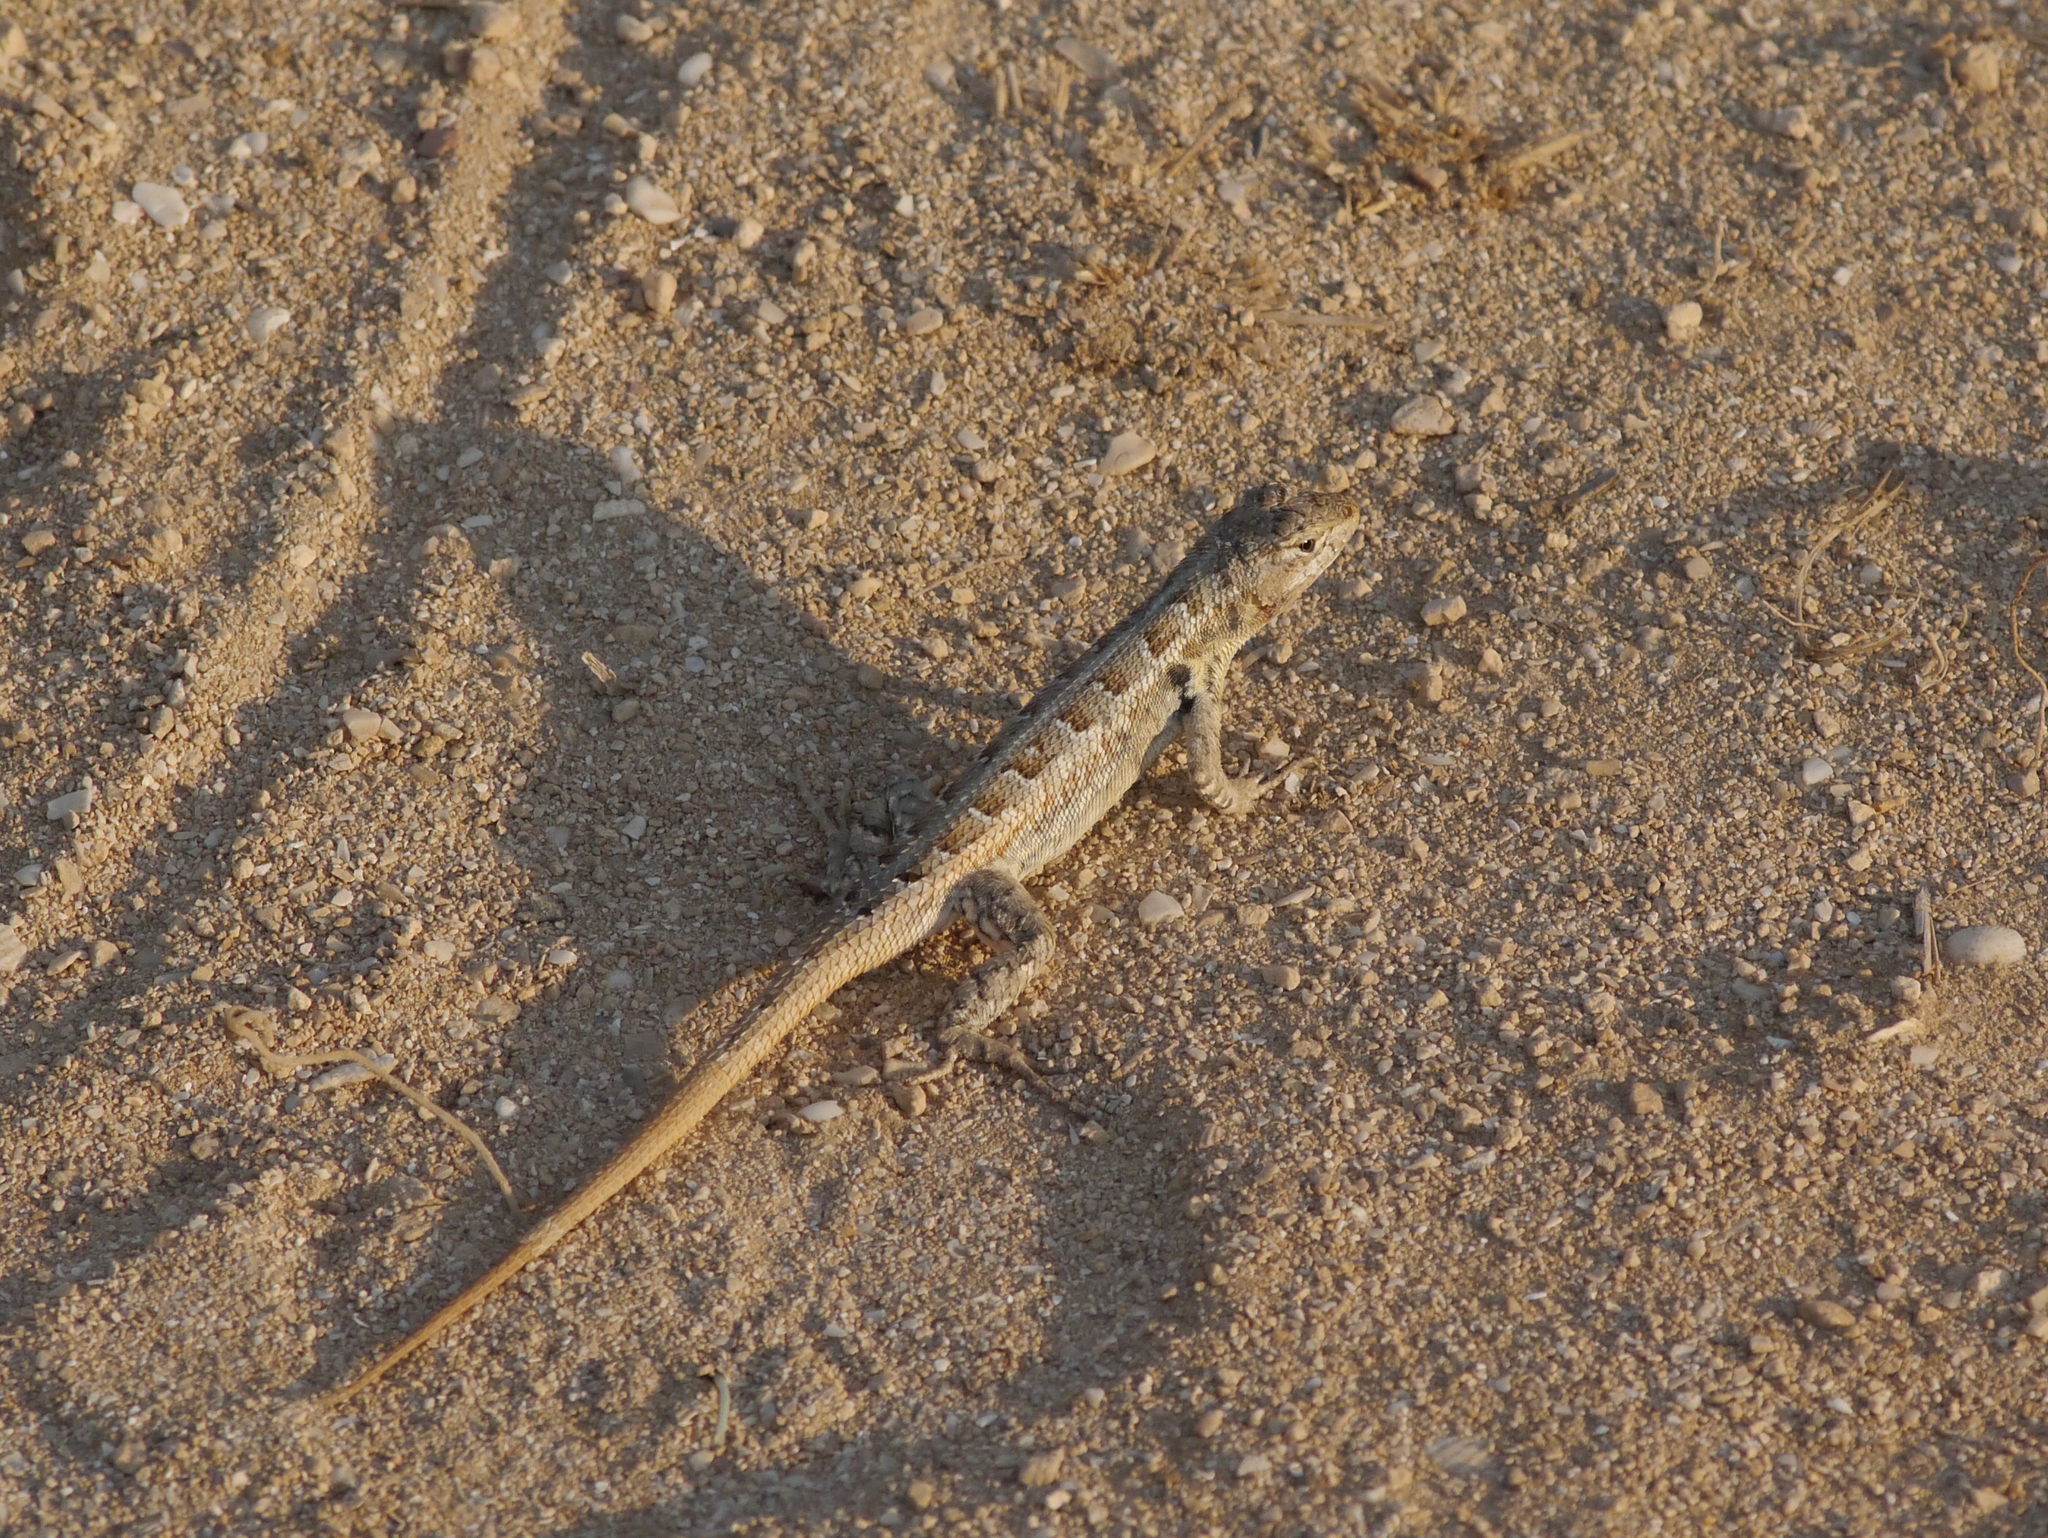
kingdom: Animalia
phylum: Chordata
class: Squamata
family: Phrynosomatidae
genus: Sceloporus
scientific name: Sceloporus cozumelae
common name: Cozumel spiny lizard
